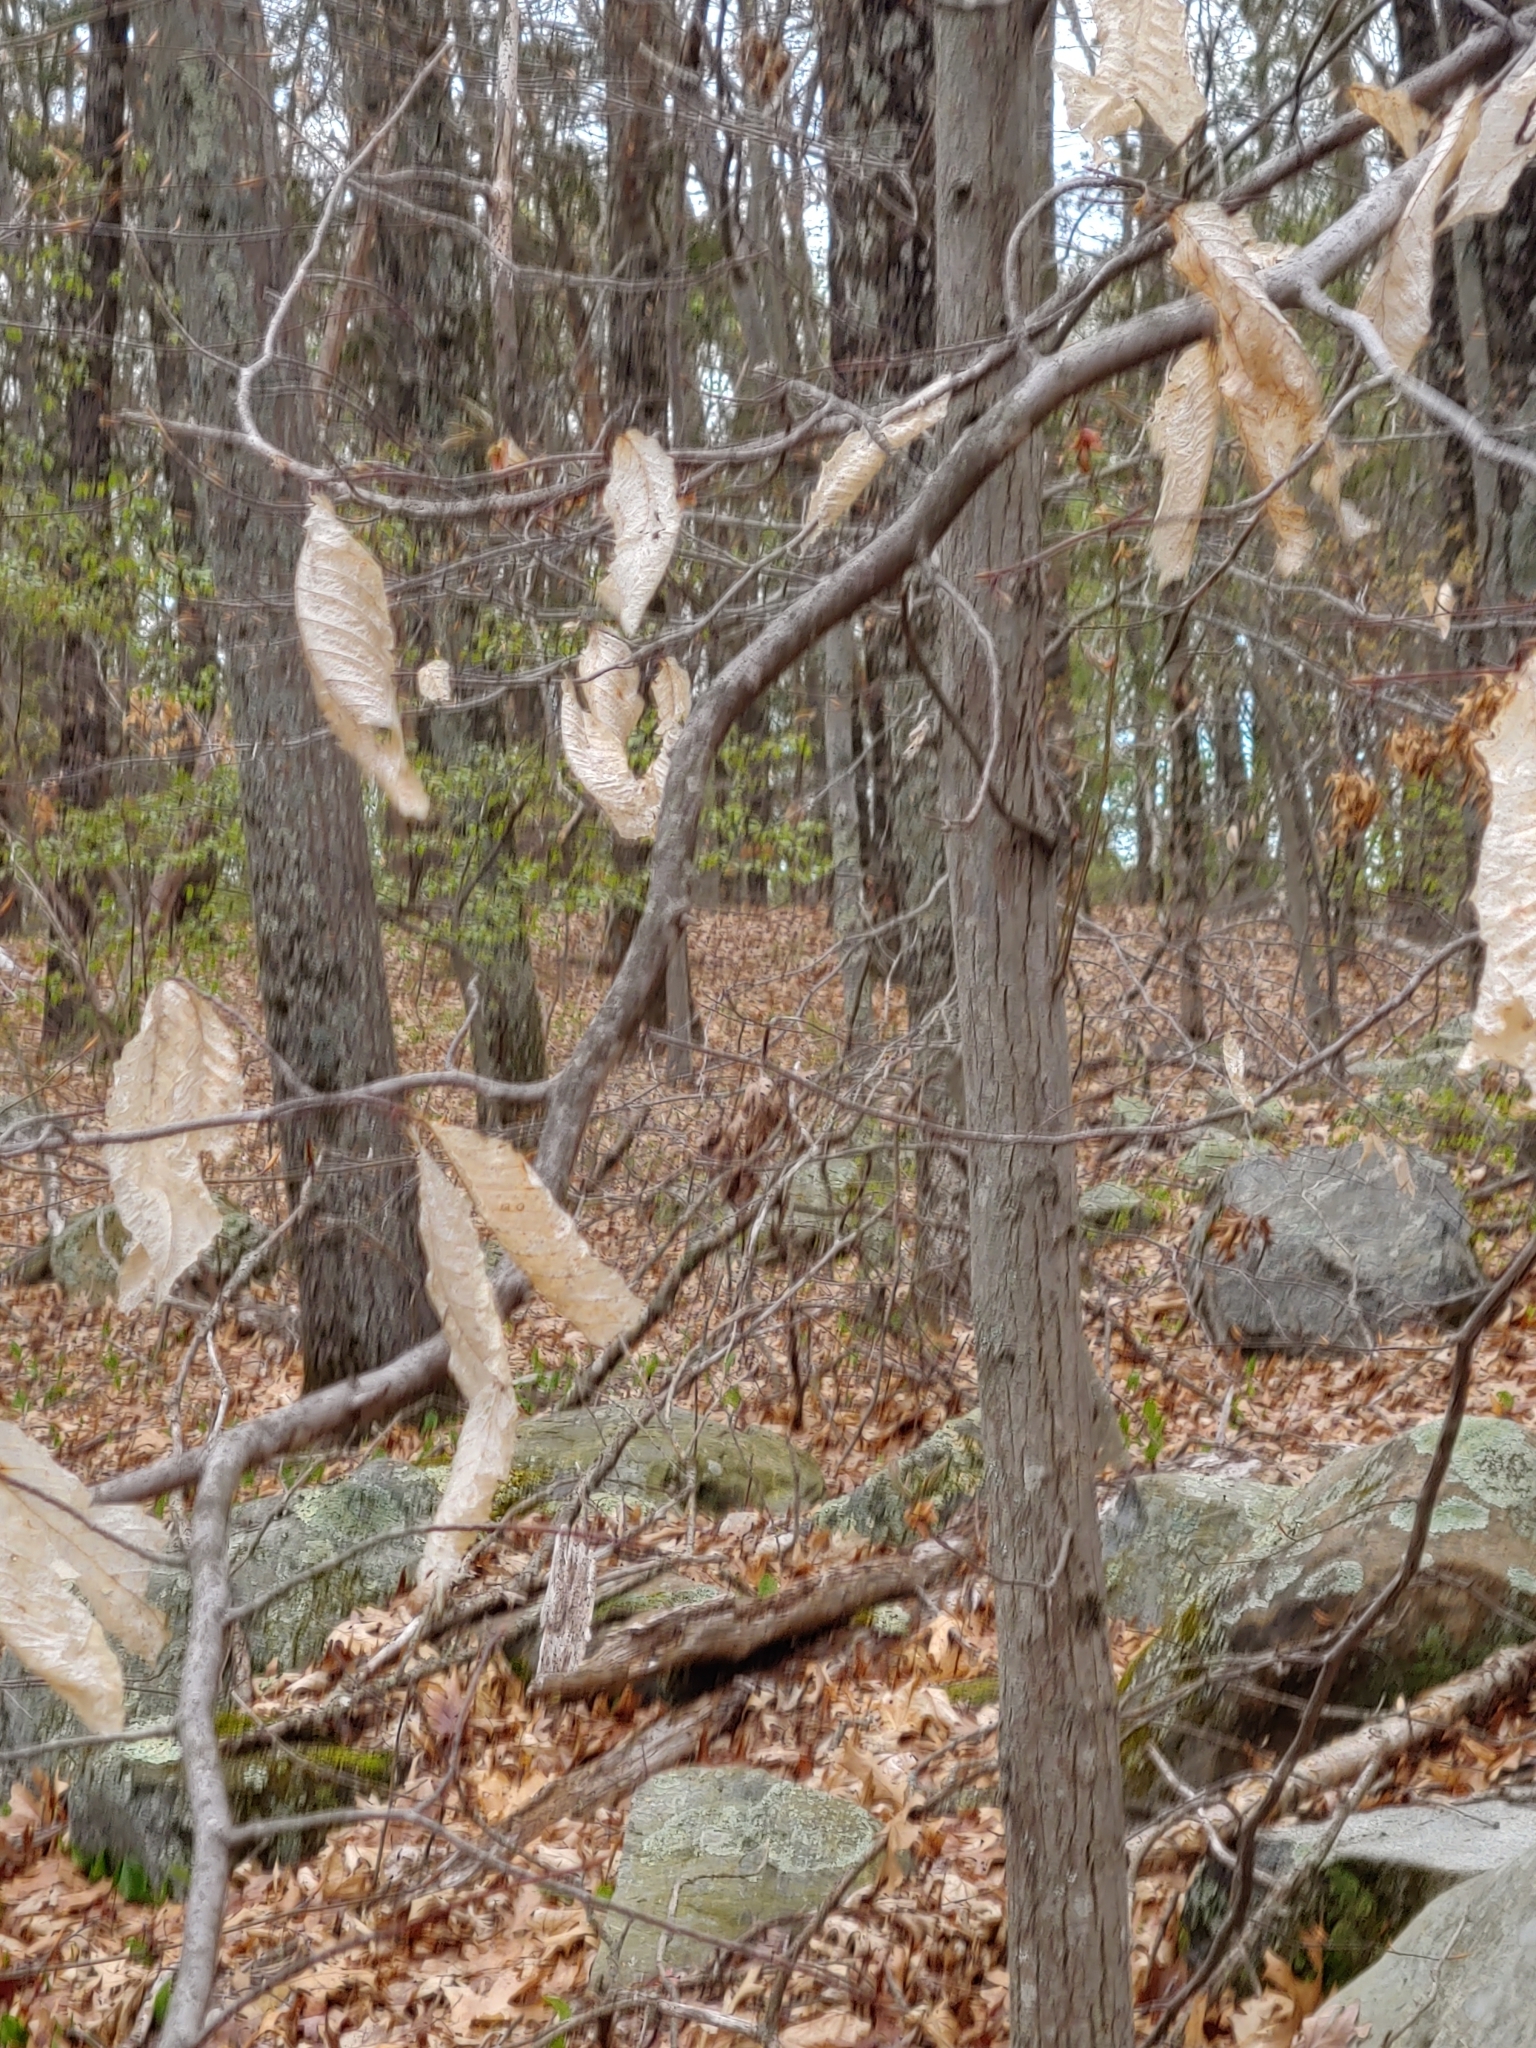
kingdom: Plantae
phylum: Tracheophyta
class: Magnoliopsida
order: Fagales
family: Fagaceae
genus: Fagus
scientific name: Fagus grandifolia
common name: American beech
